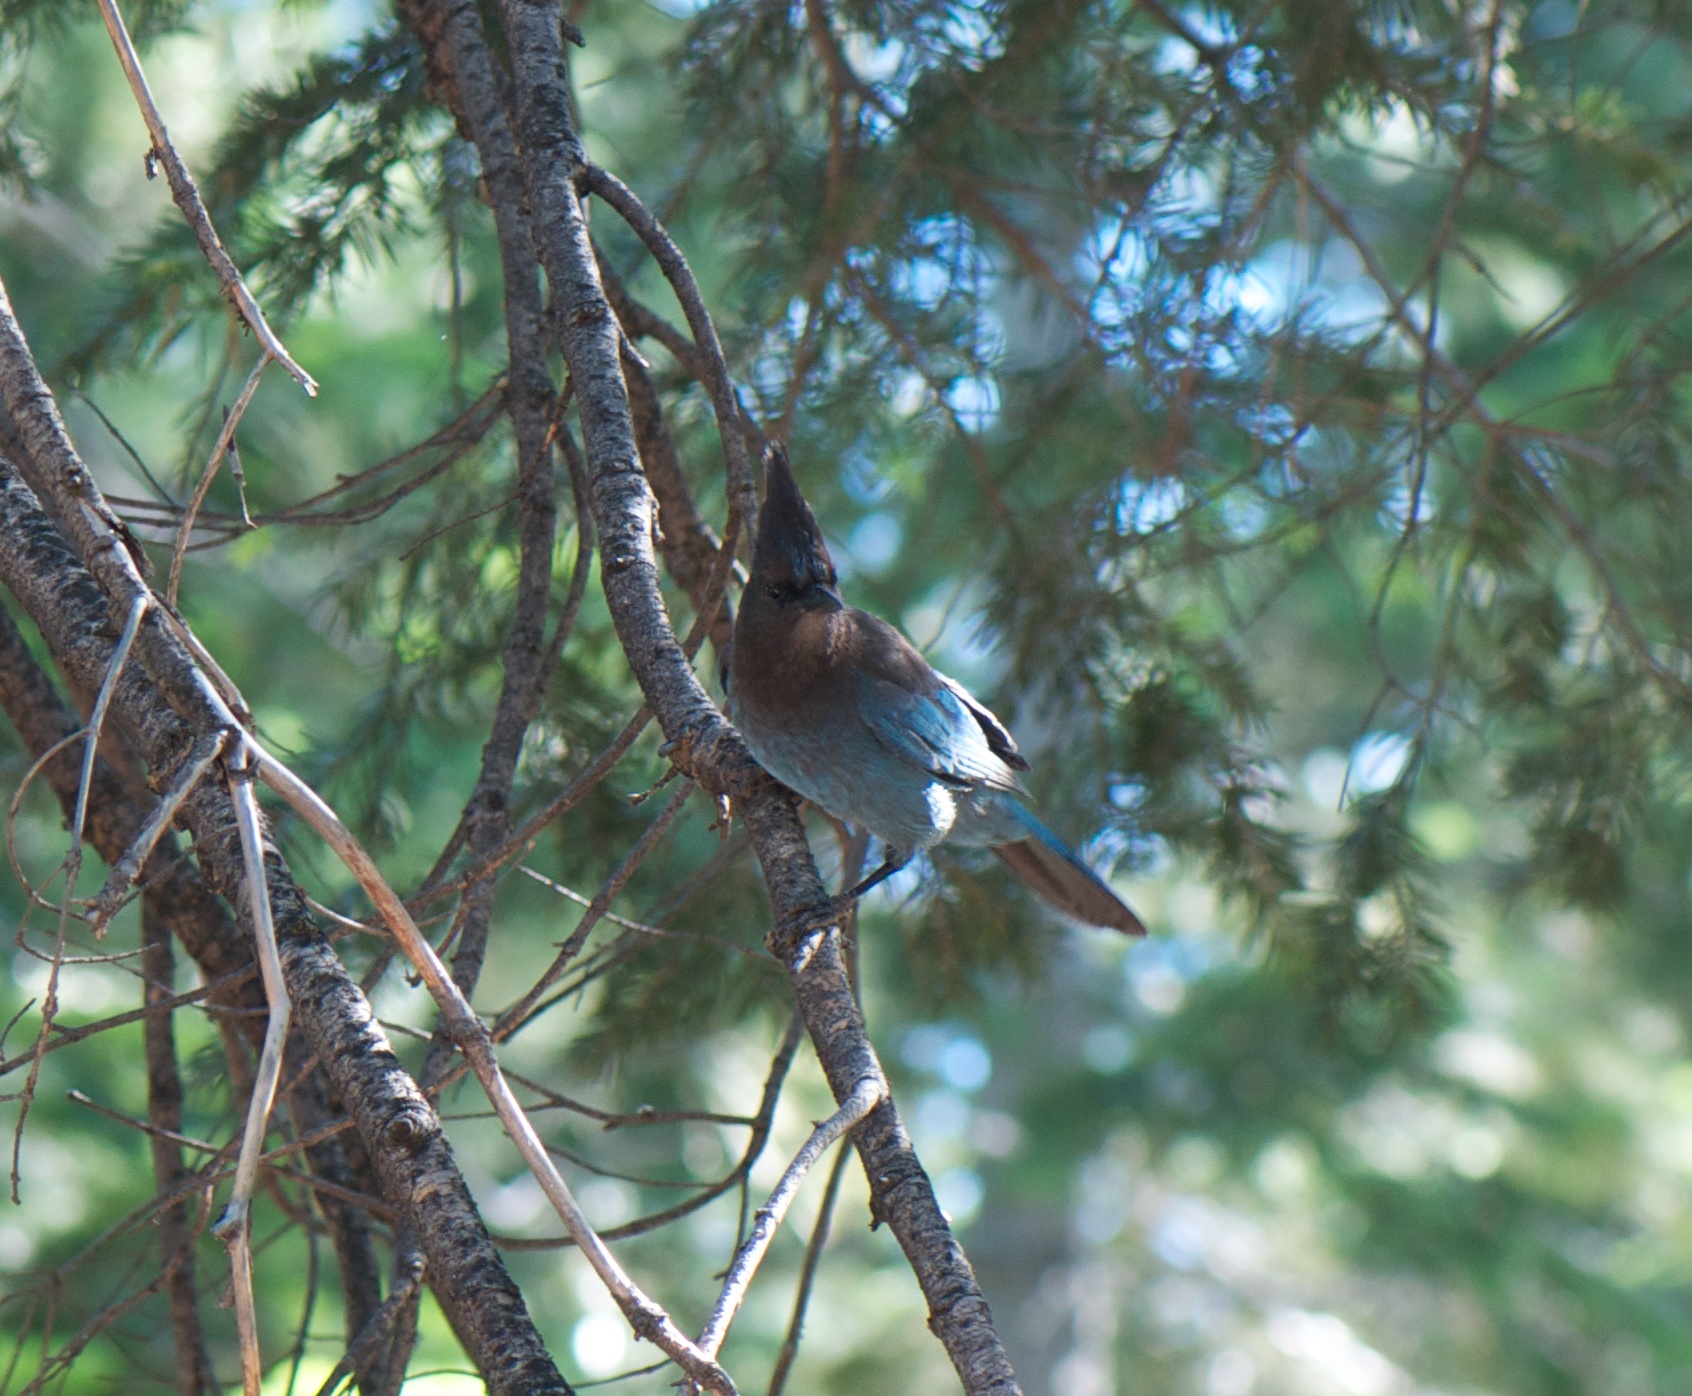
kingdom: Animalia
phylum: Chordata
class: Aves
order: Passeriformes
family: Corvidae
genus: Cyanocitta
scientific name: Cyanocitta stelleri
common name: Steller's jay
